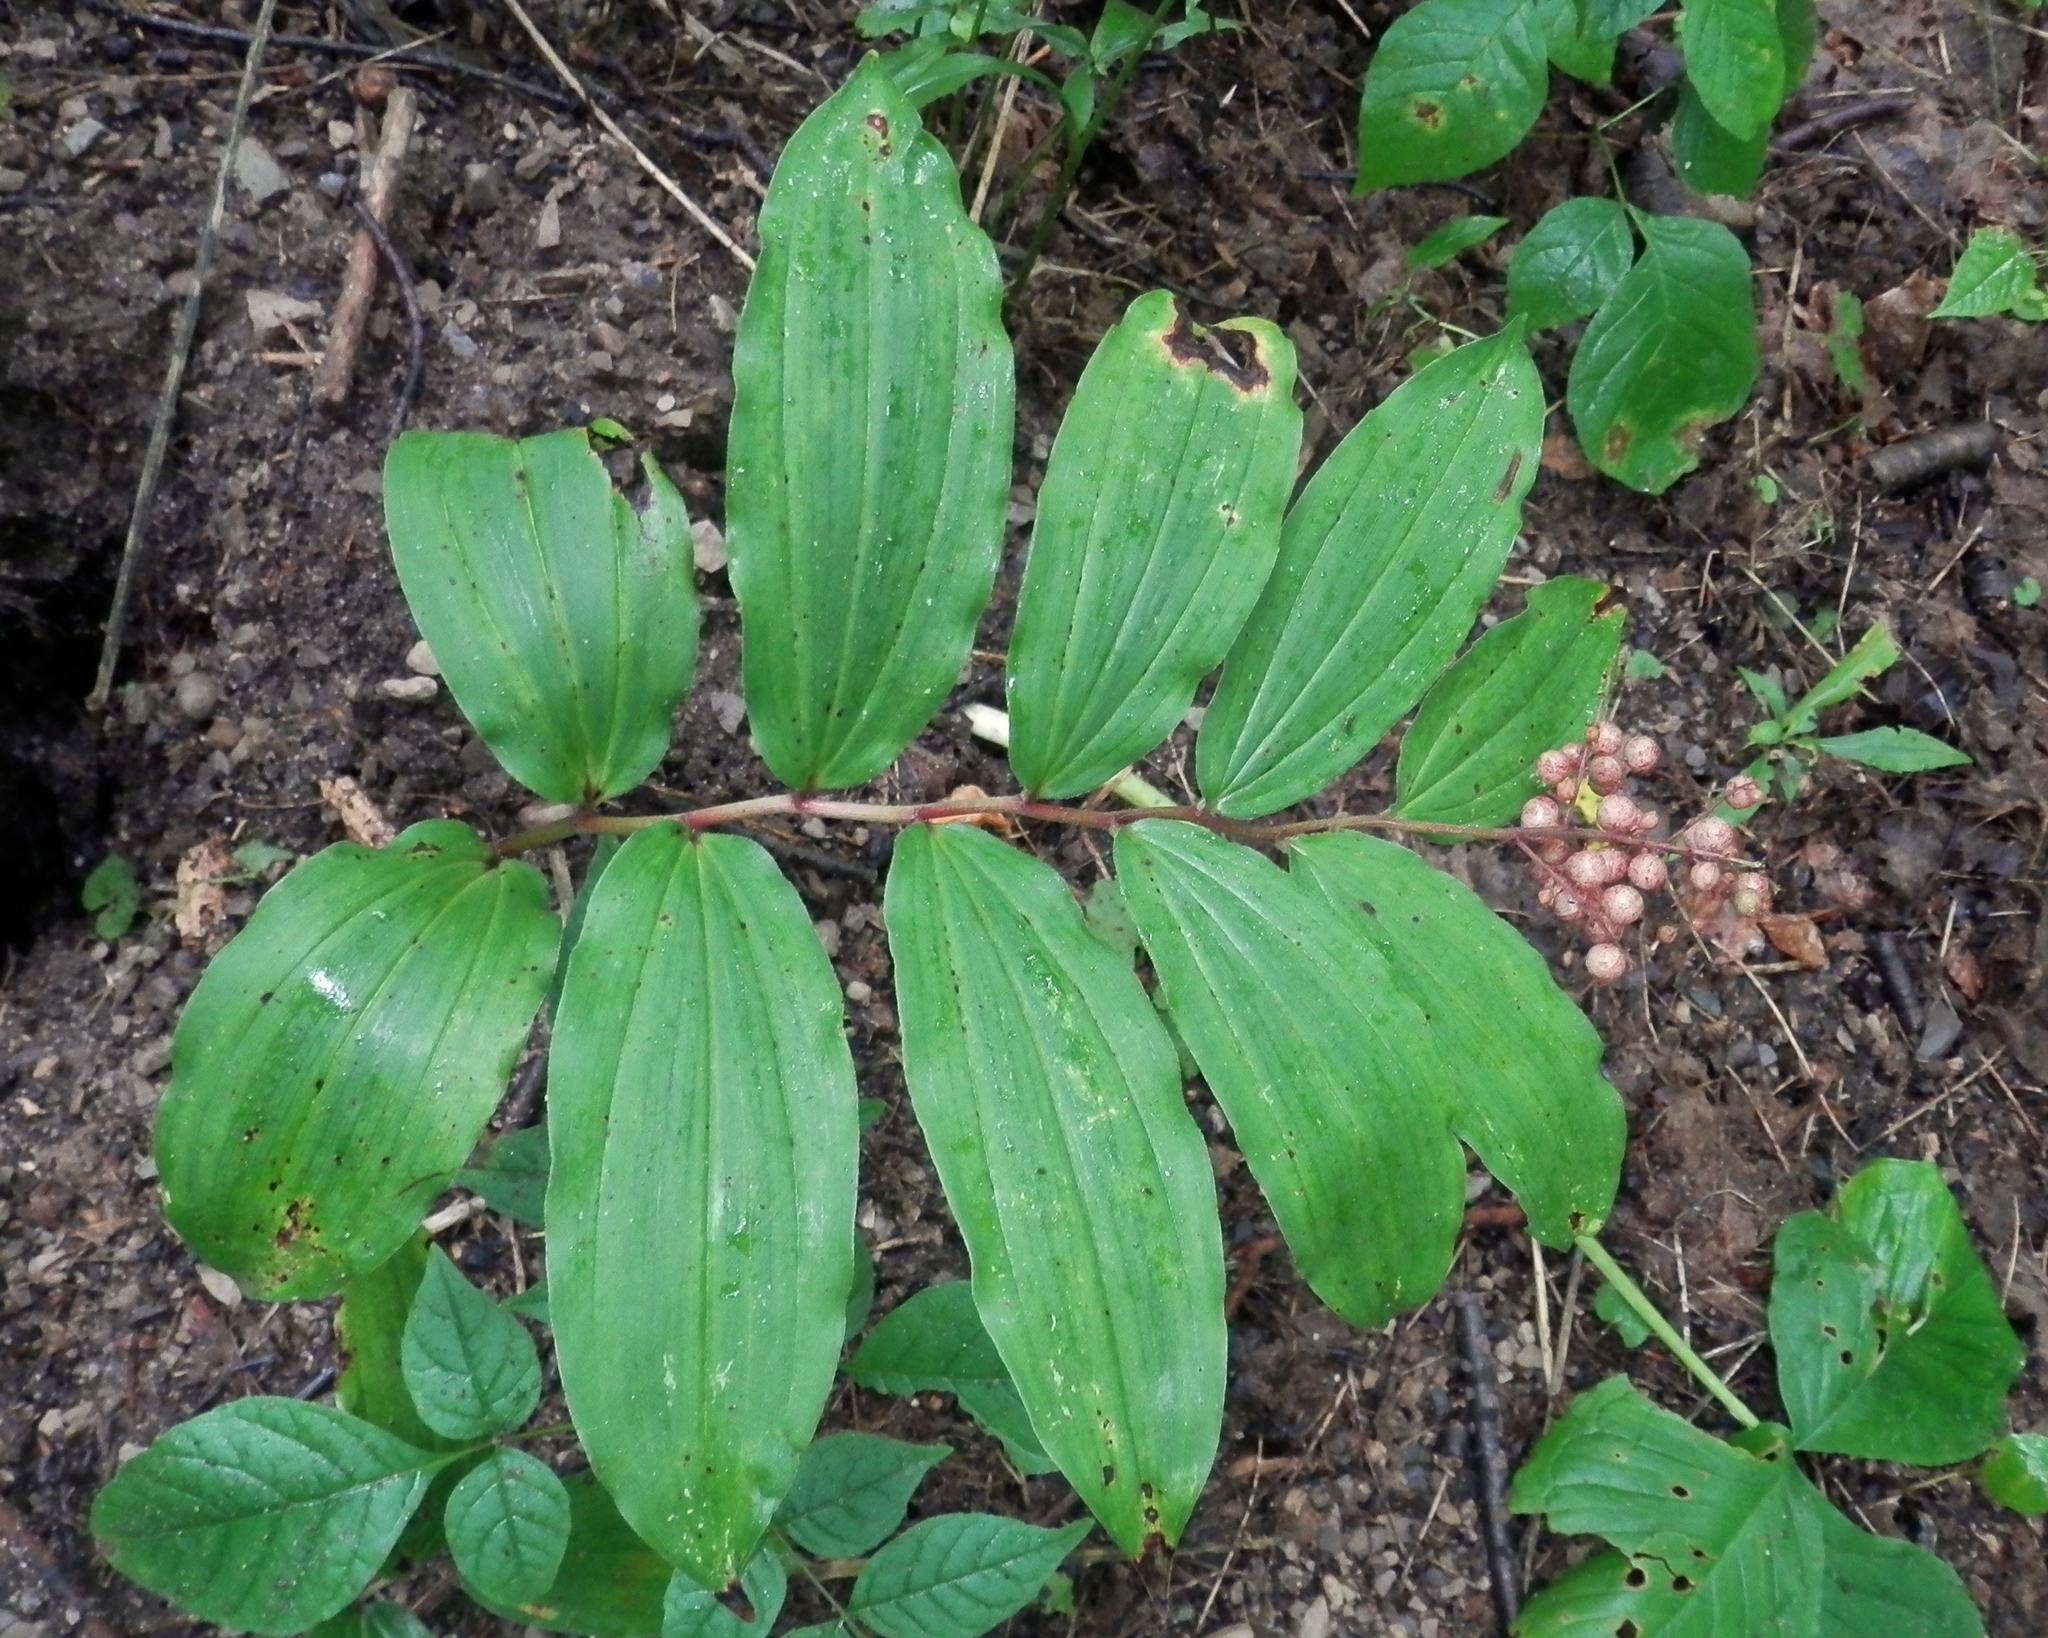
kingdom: Plantae
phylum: Tracheophyta
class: Liliopsida
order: Asparagales
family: Asparagaceae
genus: Maianthemum
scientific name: Maianthemum racemosum
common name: False spikenard
